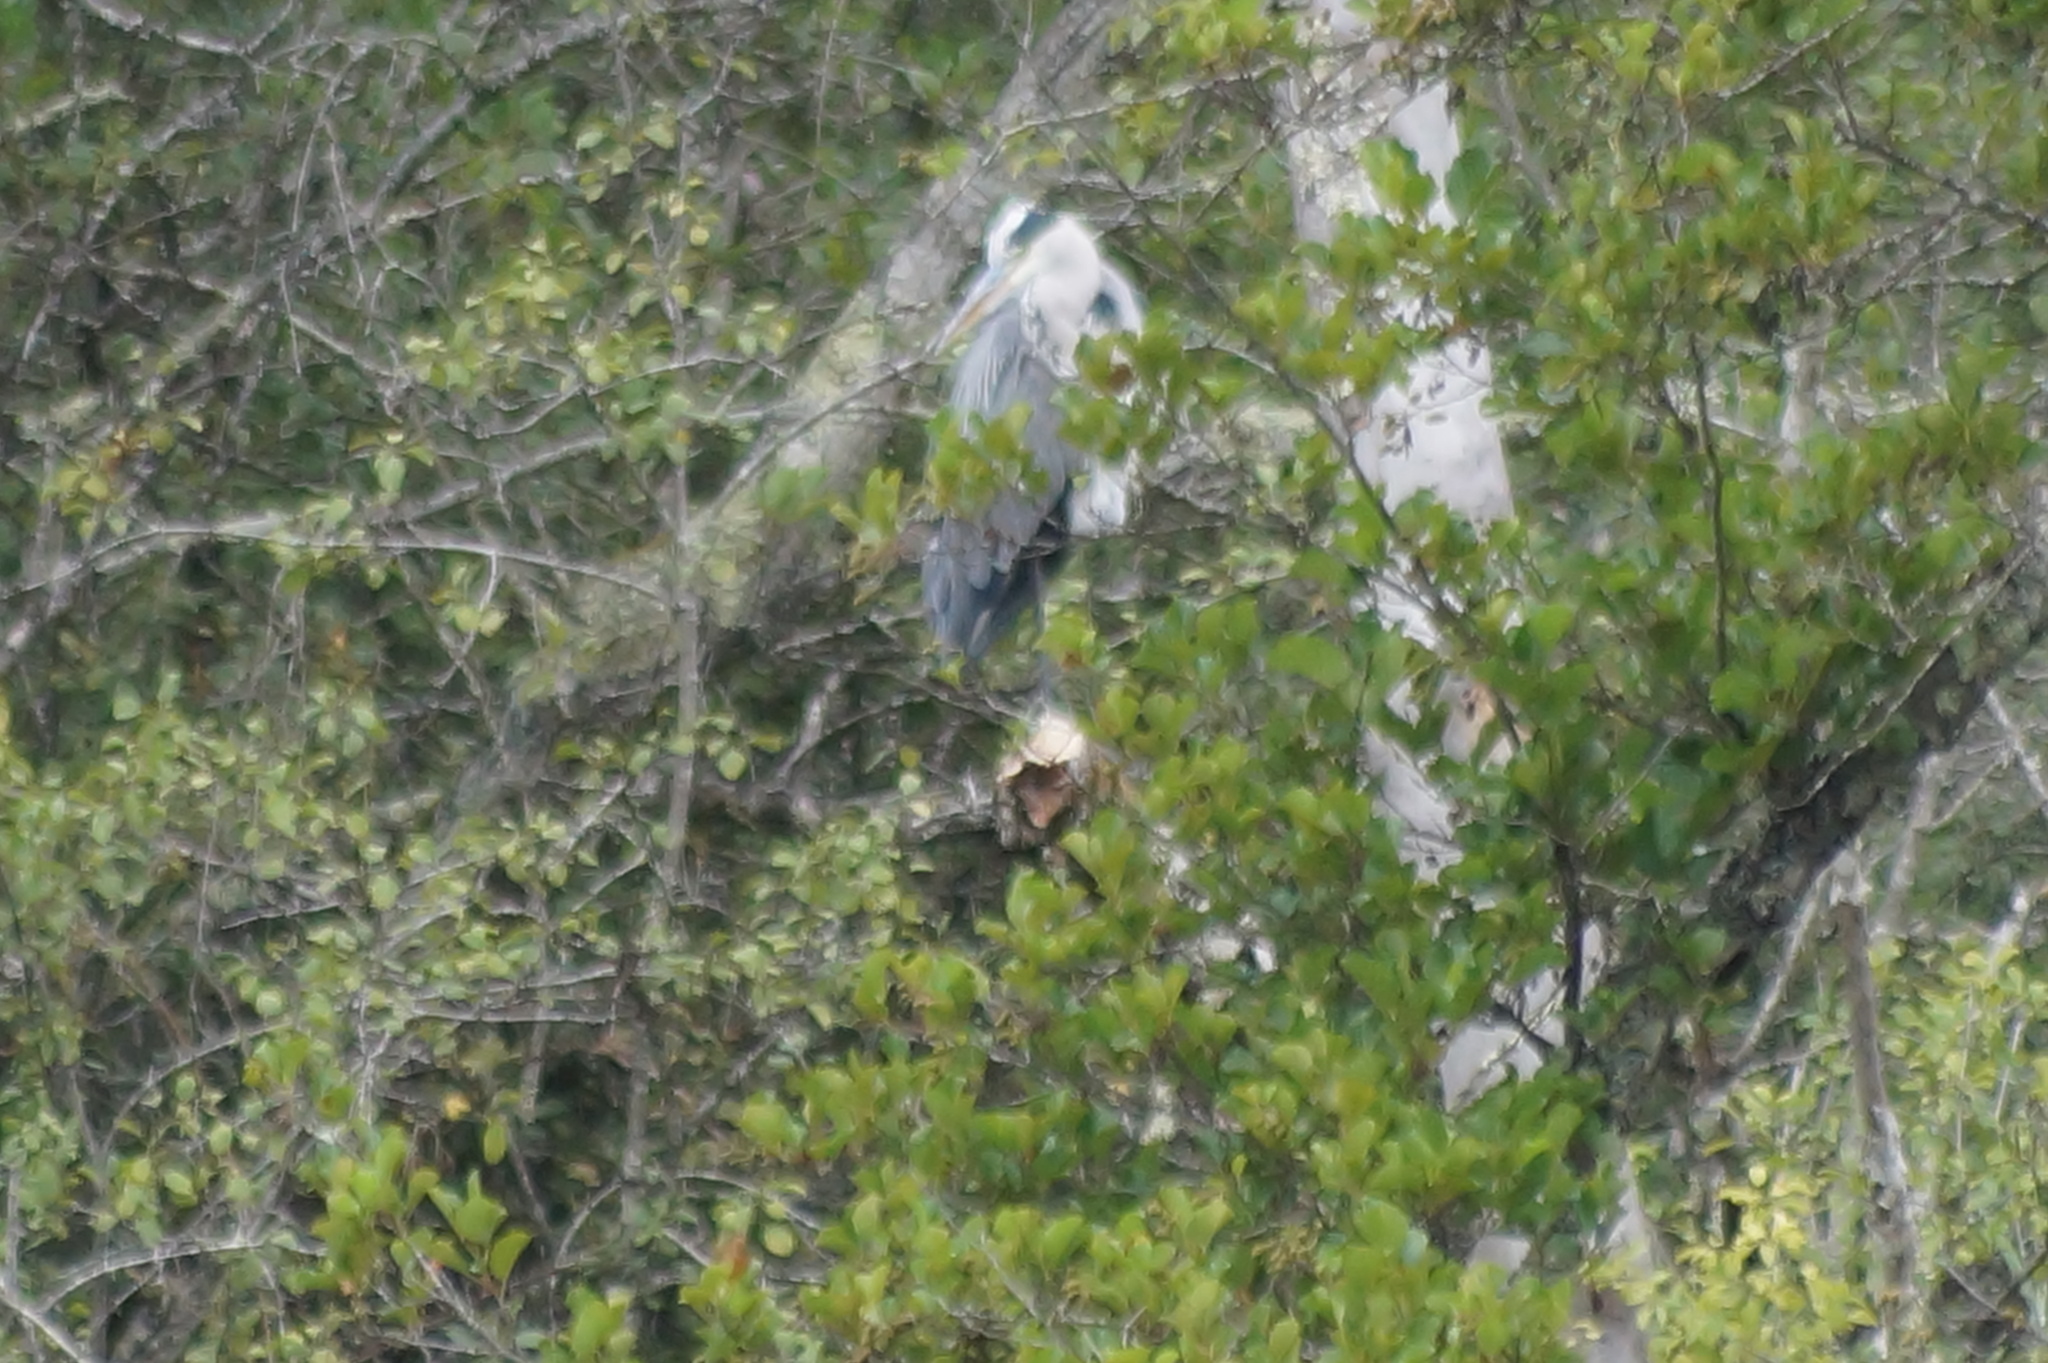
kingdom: Animalia
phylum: Chordata
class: Aves
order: Pelecaniformes
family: Ardeidae
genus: Ardea
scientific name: Ardea cinerea
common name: Grey heron
